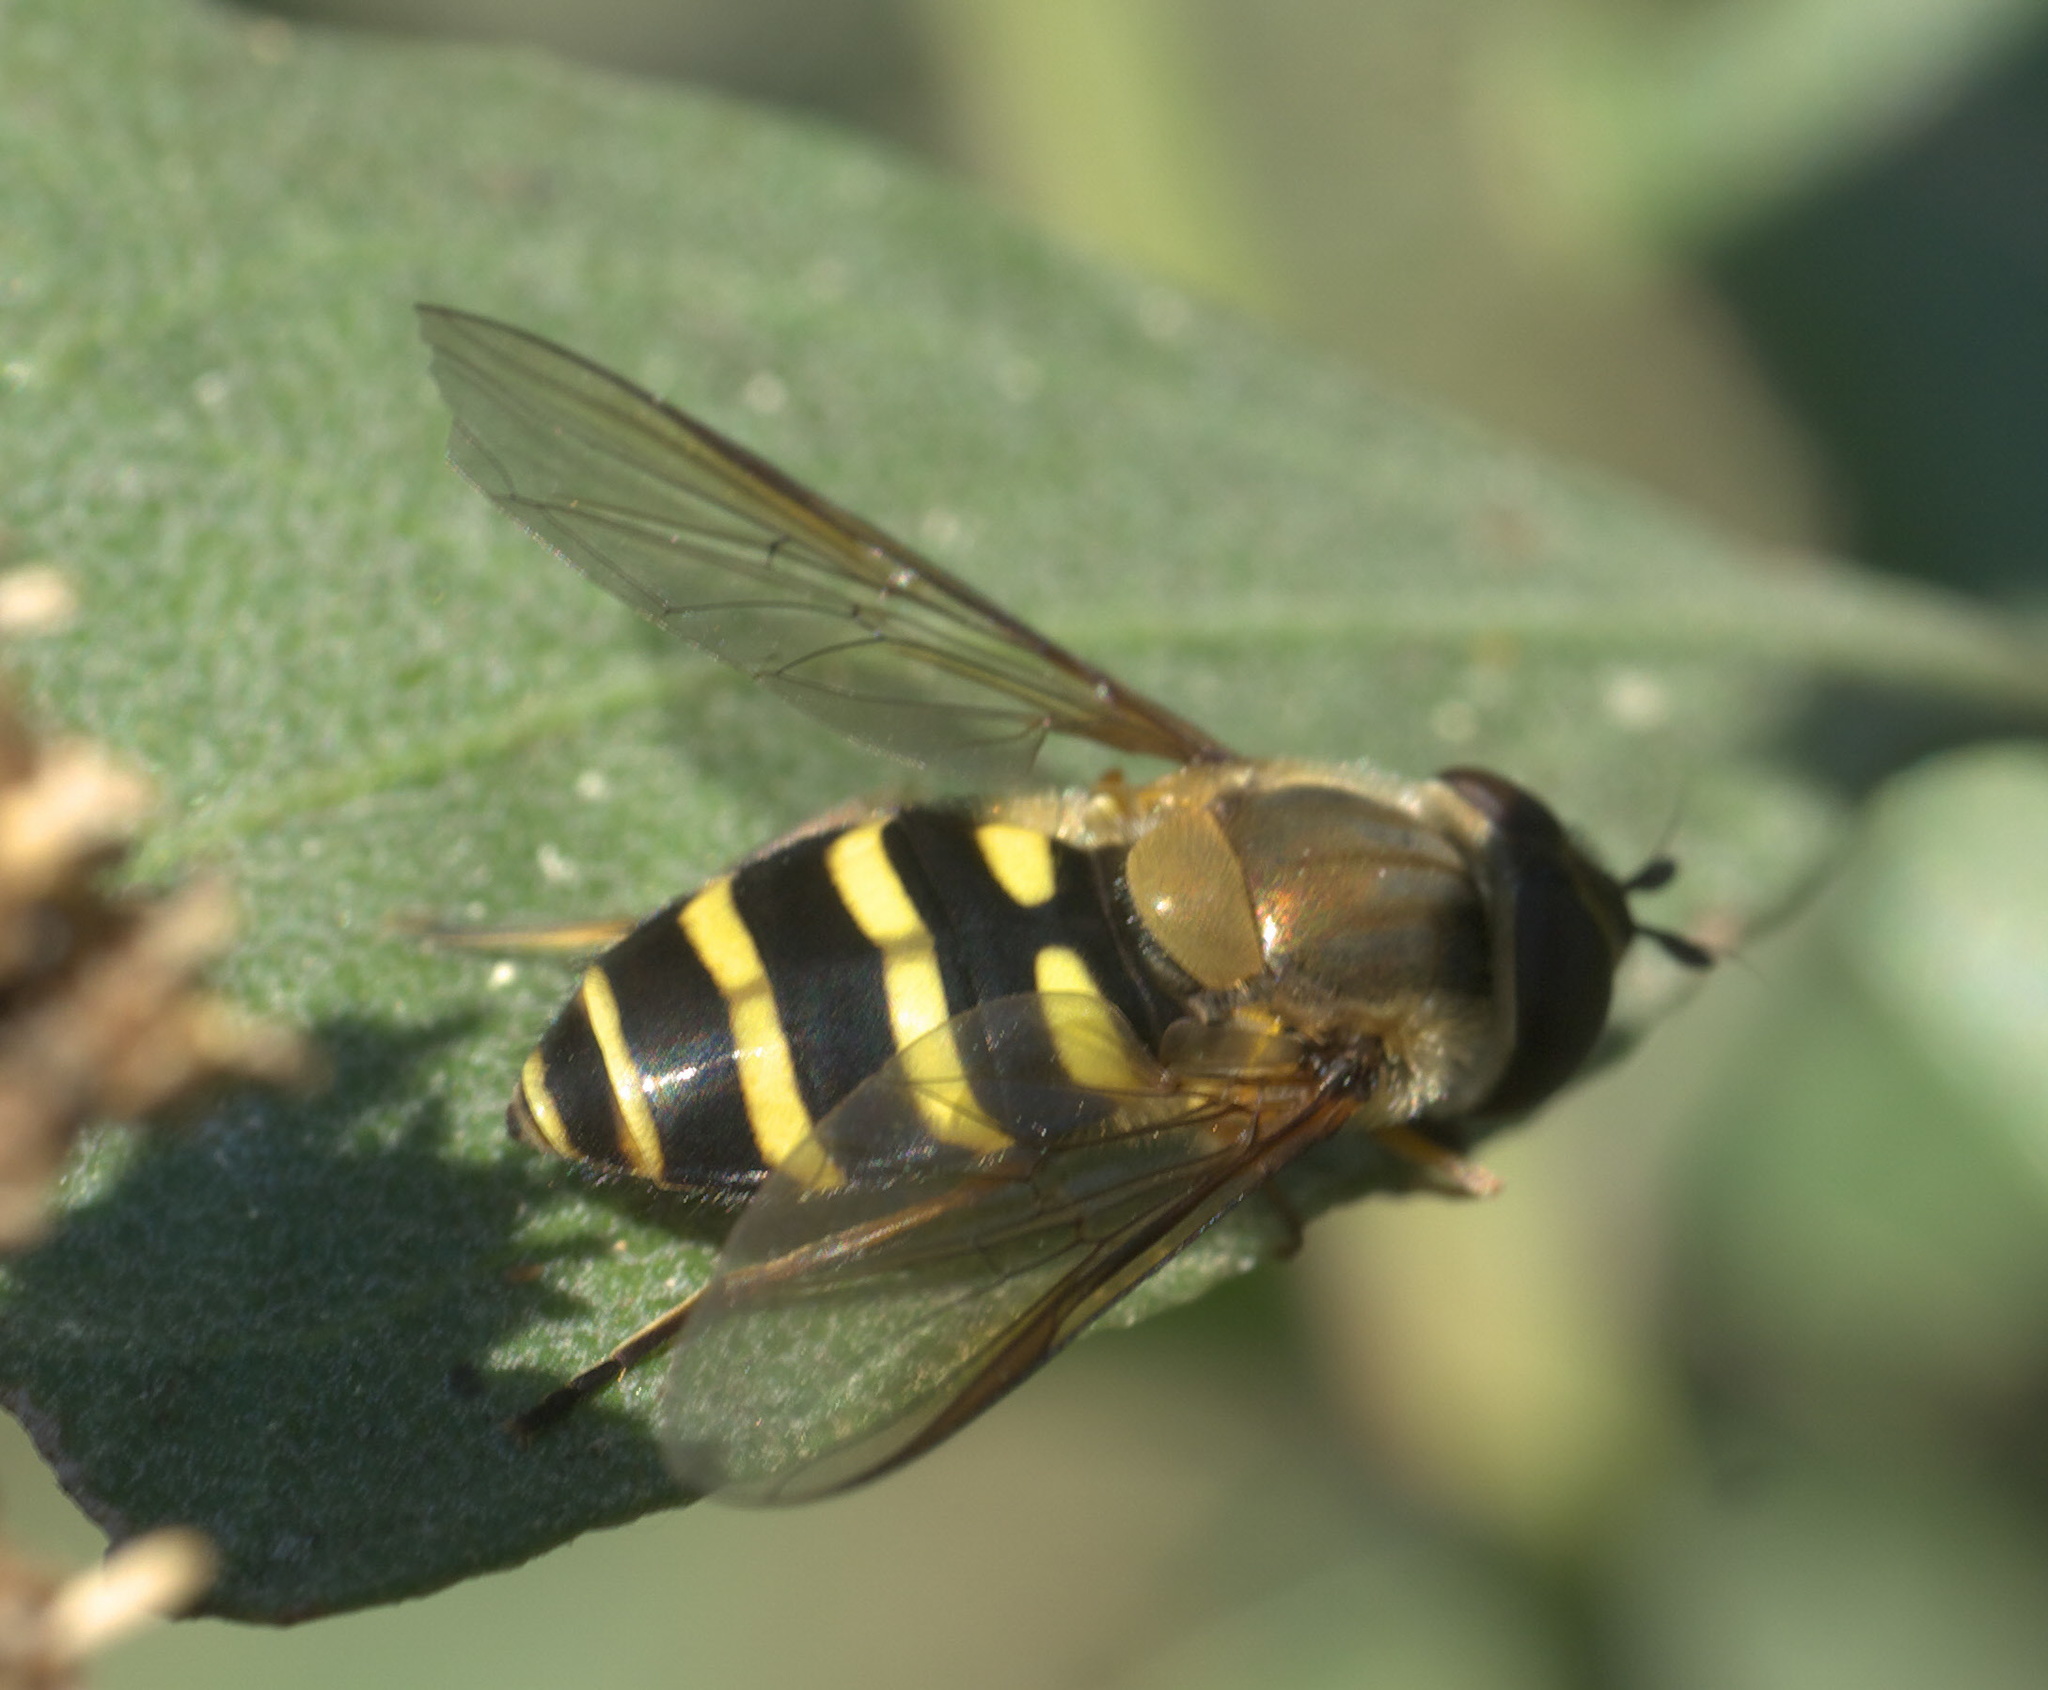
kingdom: Animalia
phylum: Arthropoda
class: Insecta
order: Diptera
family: Syrphidae
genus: Syrphus
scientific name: Syrphus
